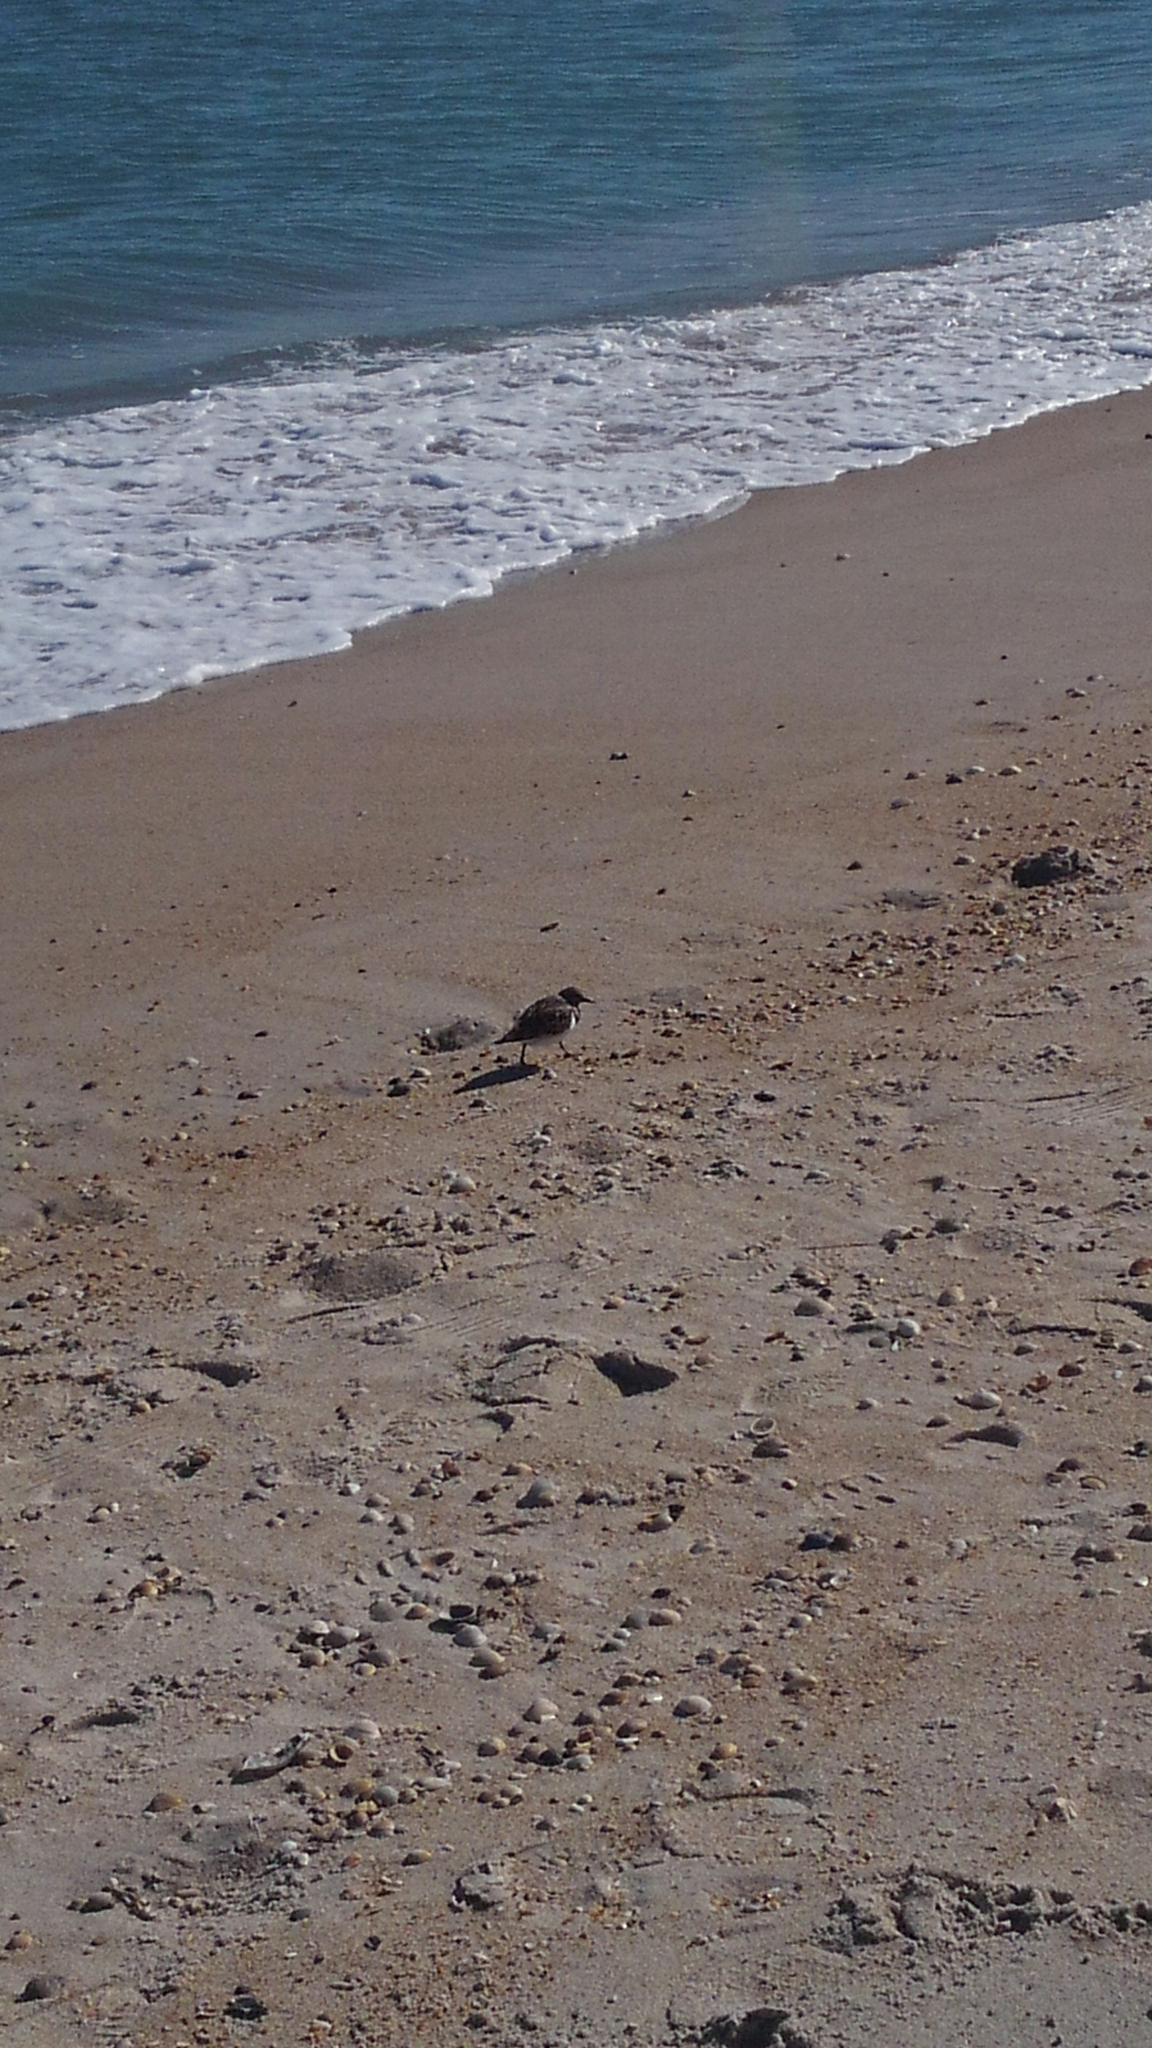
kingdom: Animalia
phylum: Chordata
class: Aves
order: Charadriiformes
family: Scolopacidae
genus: Arenaria
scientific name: Arenaria interpres
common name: Ruddy turnstone
